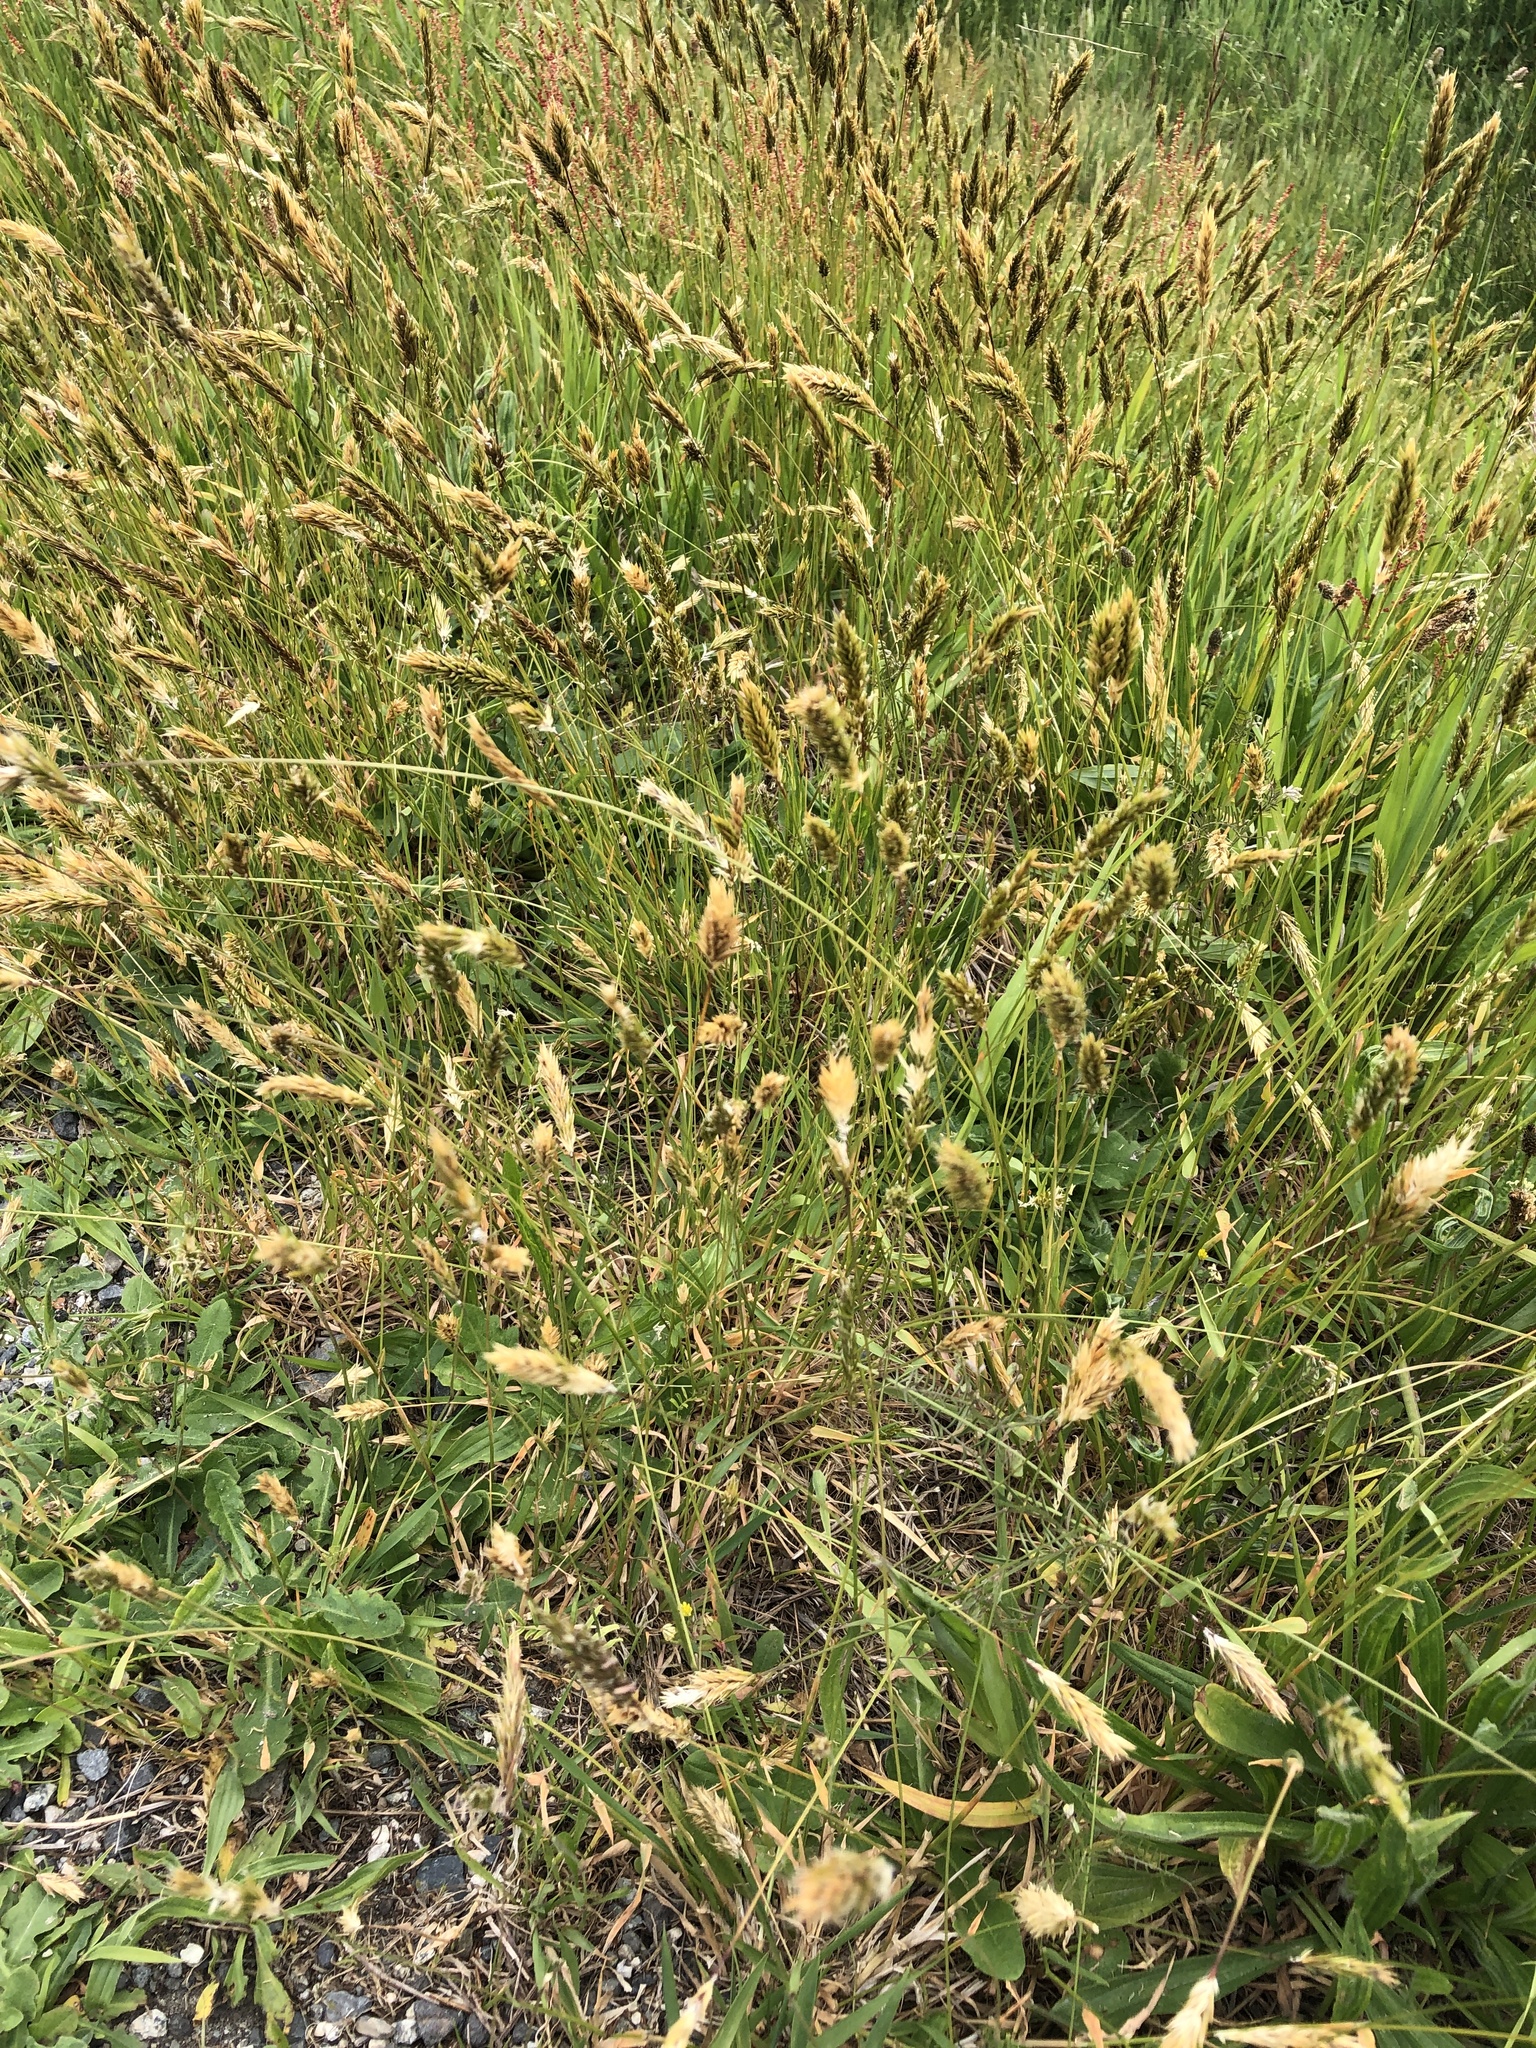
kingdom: Plantae
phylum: Tracheophyta
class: Liliopsida
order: Poales
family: Poaceae
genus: Anthoxanthum
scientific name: Anthoxanthum odoratum
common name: Sweet vernalgrass
